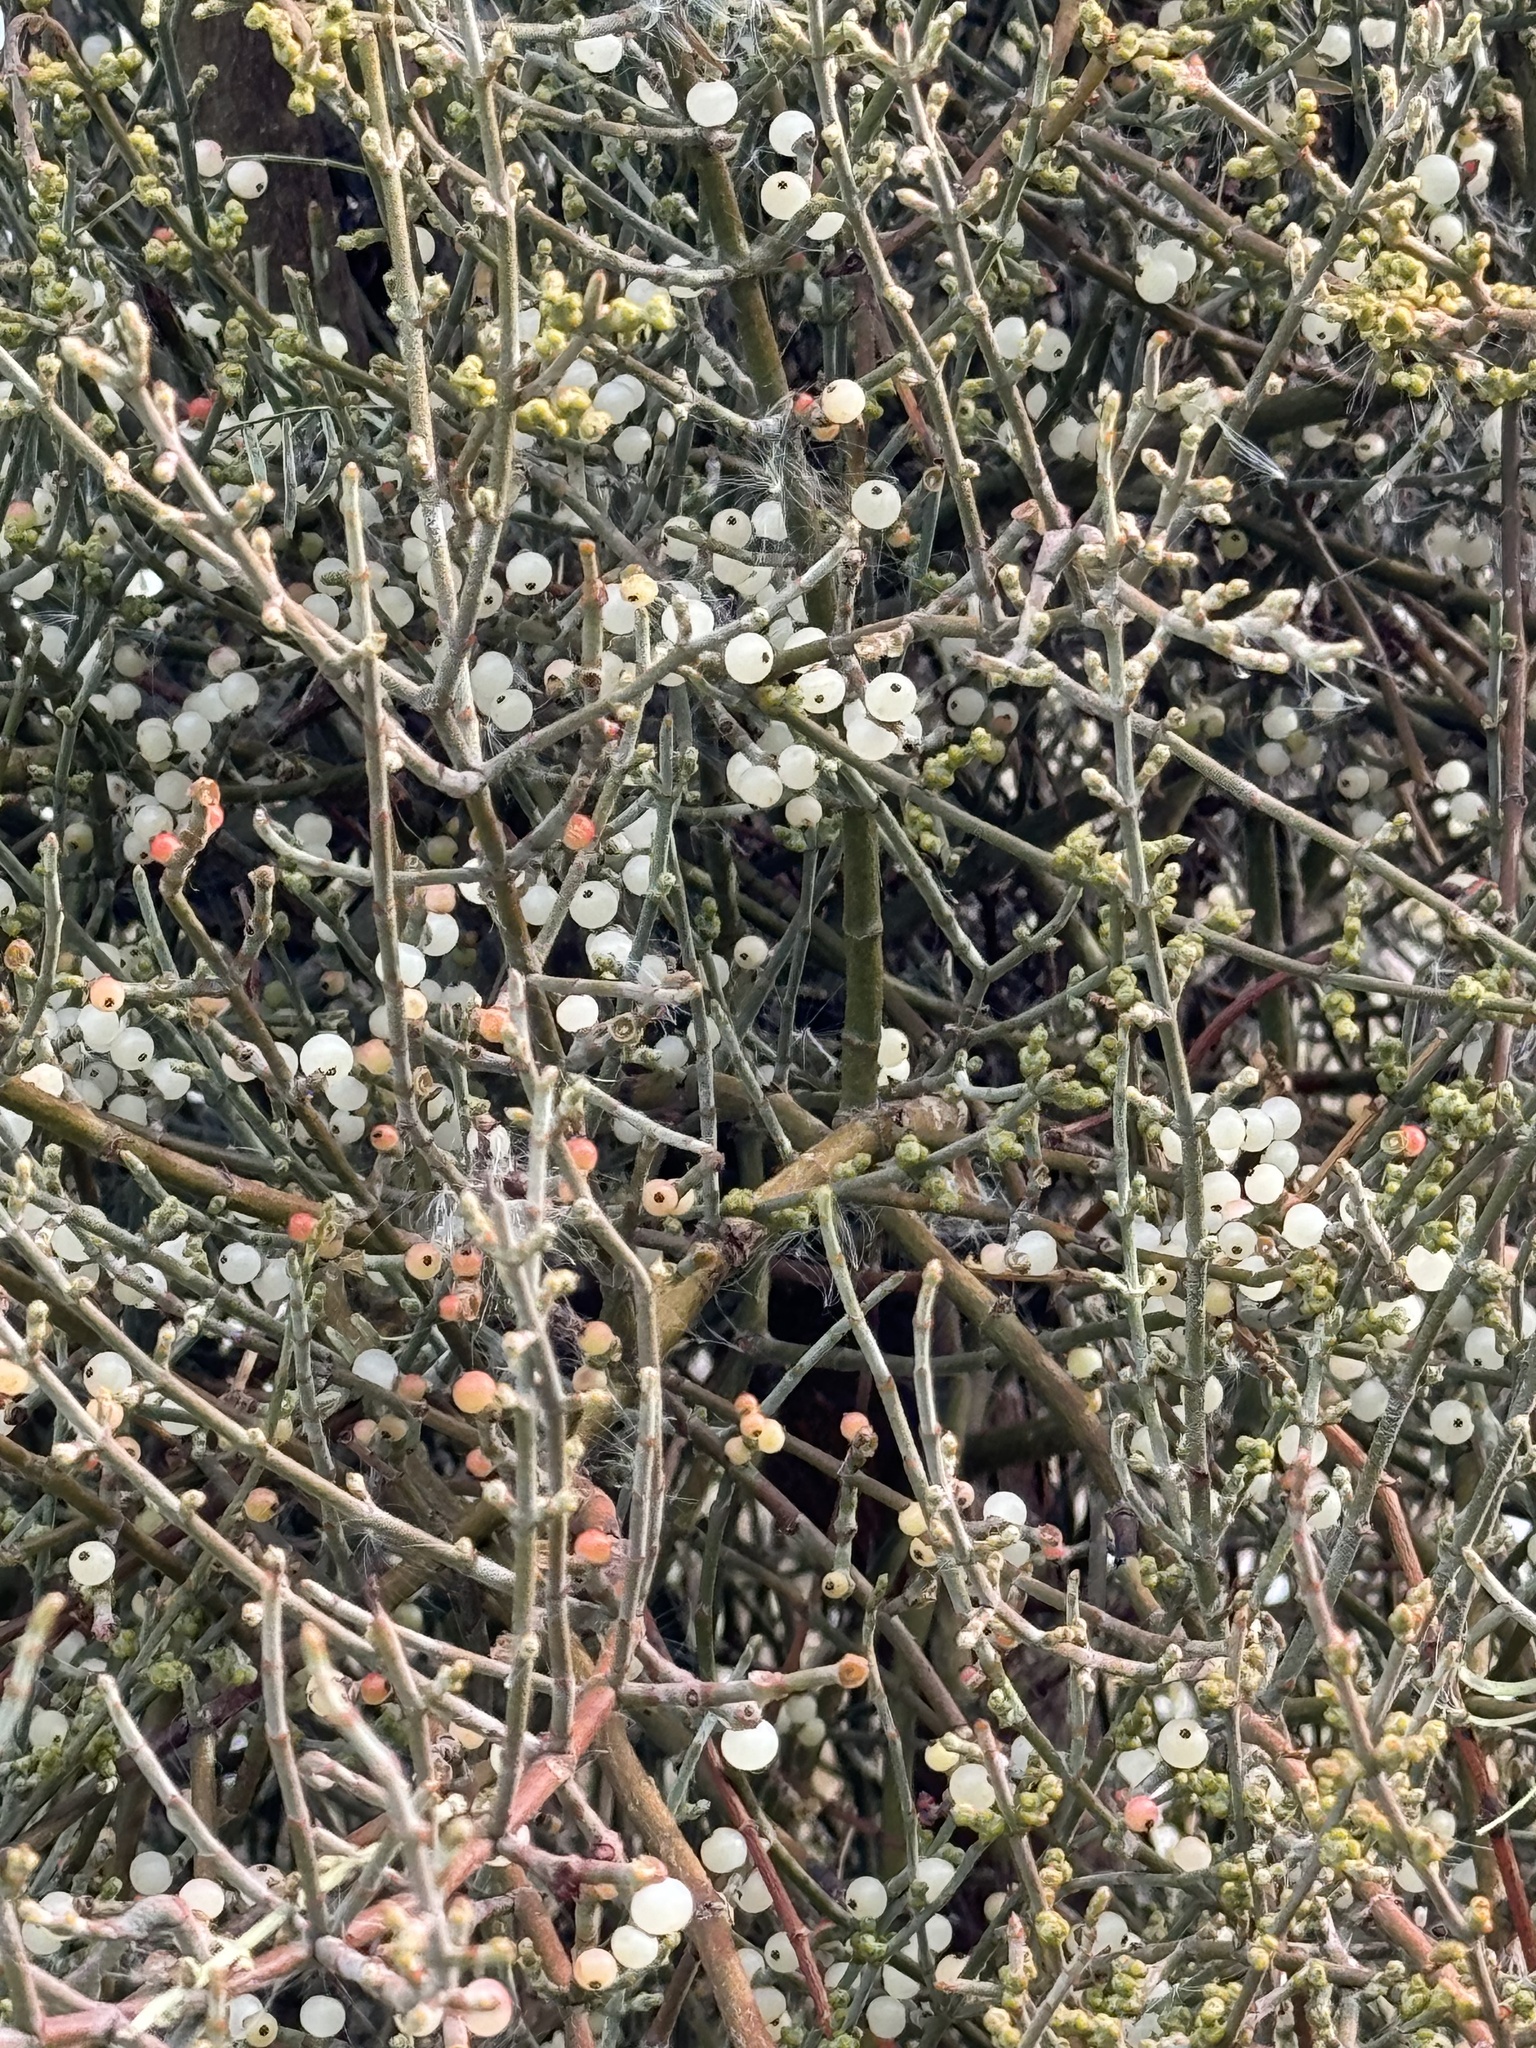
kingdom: Plantae
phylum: Tracheophyta
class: Magnoliopsida
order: Santalales
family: Viscaceae
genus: Phoradendron
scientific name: Phoradendron californicum
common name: Acacia mistletoe
